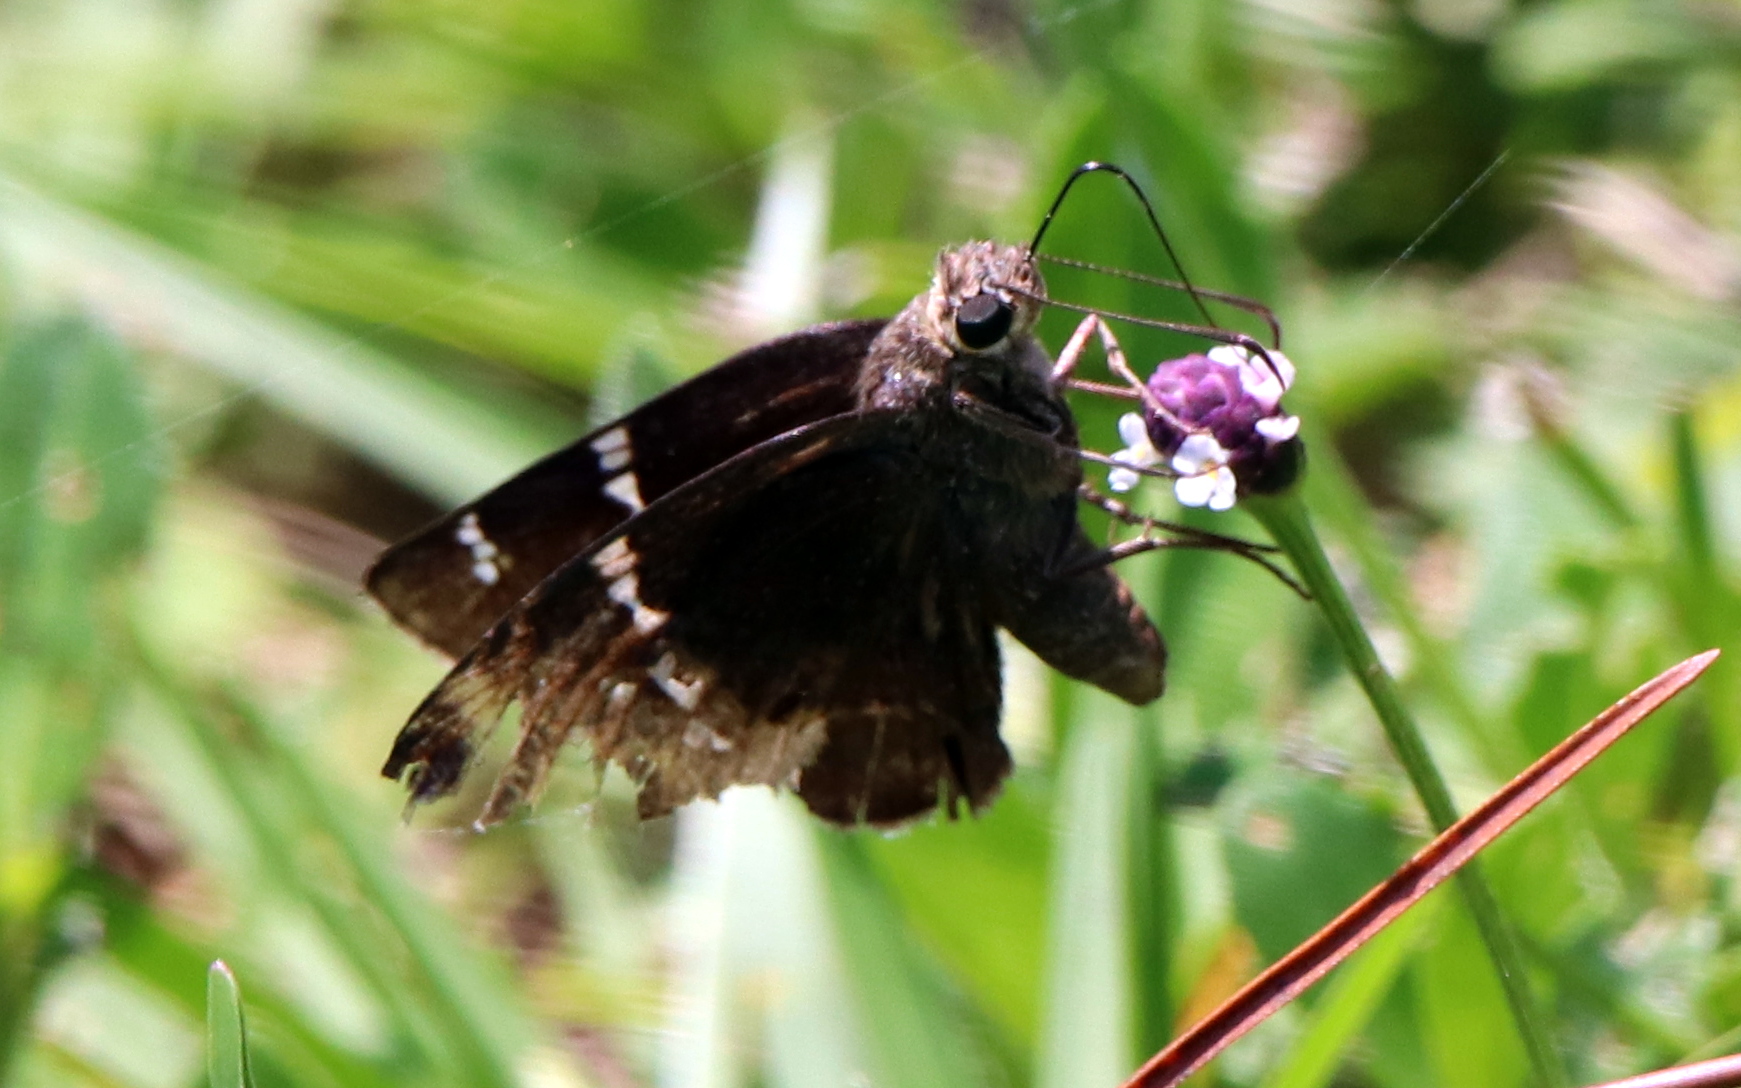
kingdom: Animalia
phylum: Arthropoda
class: Insecta
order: Lepidoptera
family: Hesperiidae
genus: Thorybes
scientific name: Thorybes daunus
